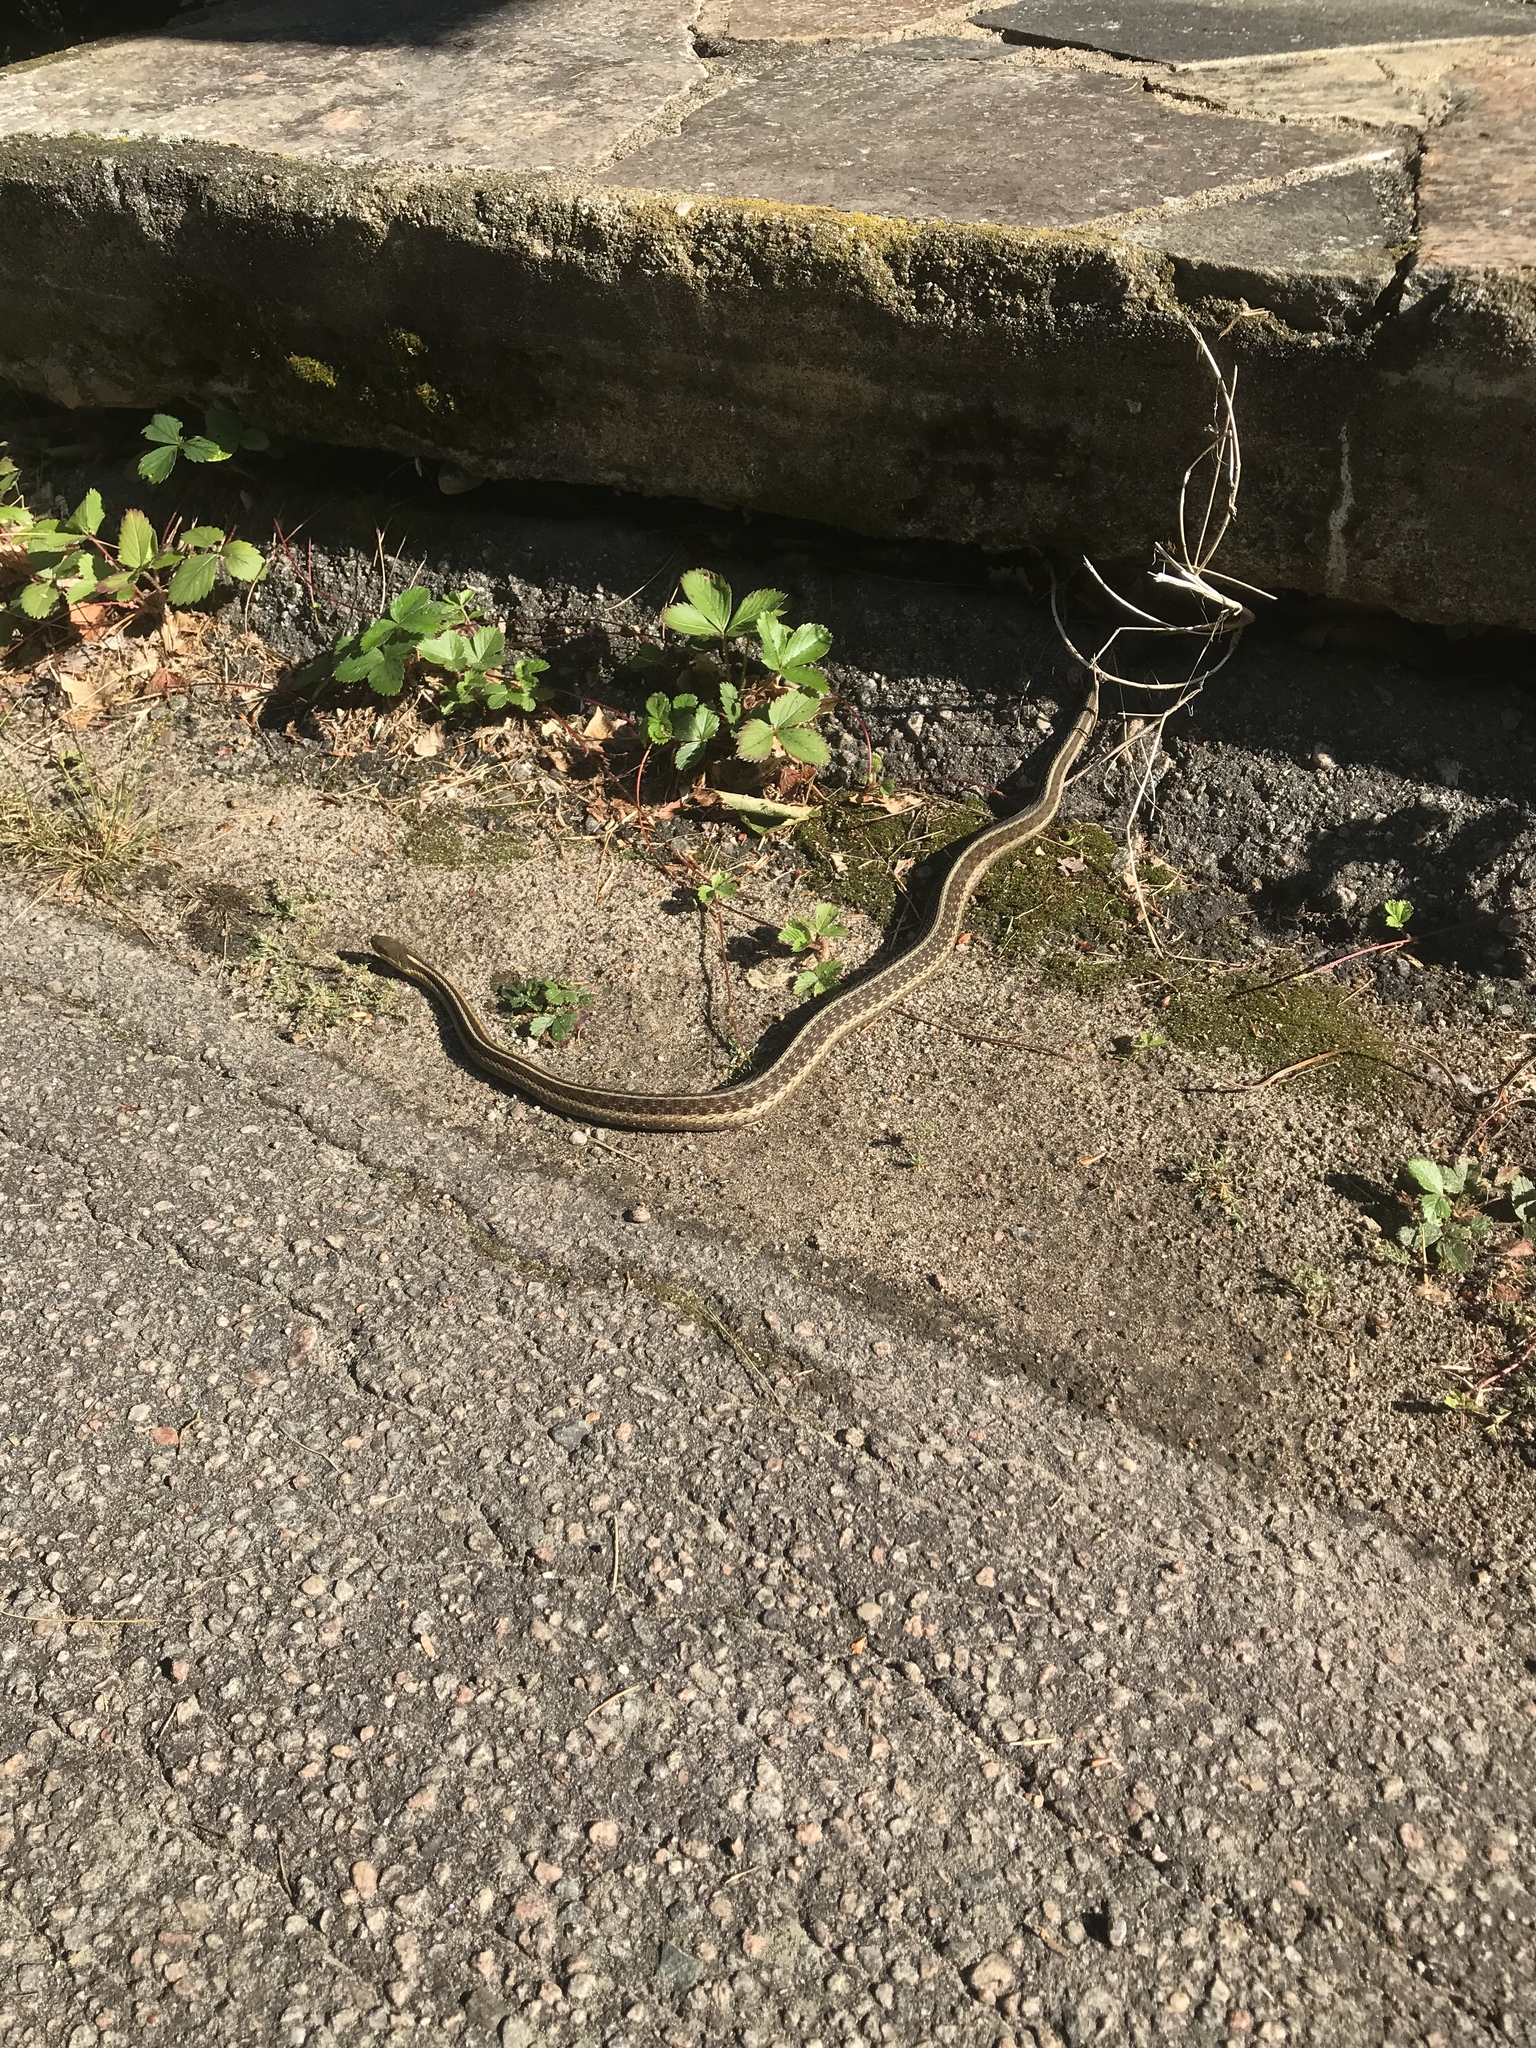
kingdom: Animalia
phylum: Chordata
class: Squamata
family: Colubridae
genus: Thamnophis
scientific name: Thamnophis sirtalis
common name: Common garter snake
